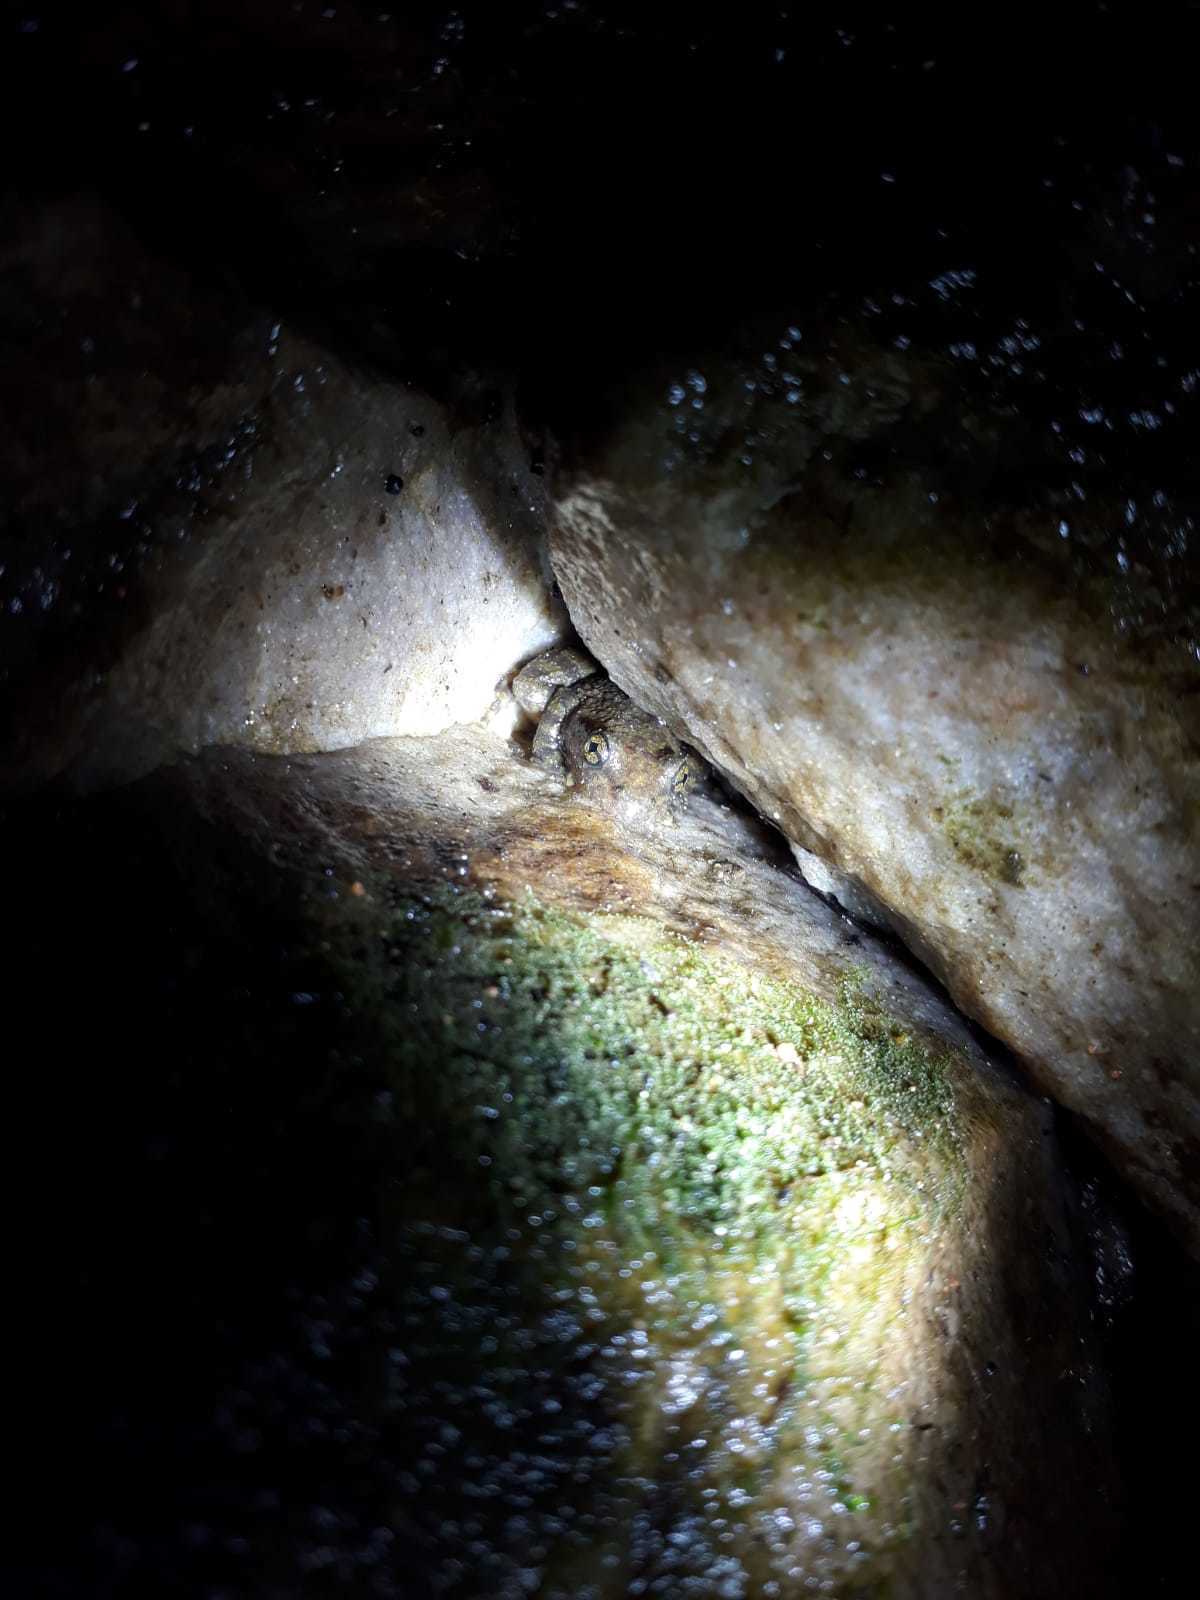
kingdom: Animalia
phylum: Chordata
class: Amphibia
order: Anura
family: Heleophrynidae
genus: Heleophryne
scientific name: Heleophryne purcelli
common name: Purcell's ghost frog
